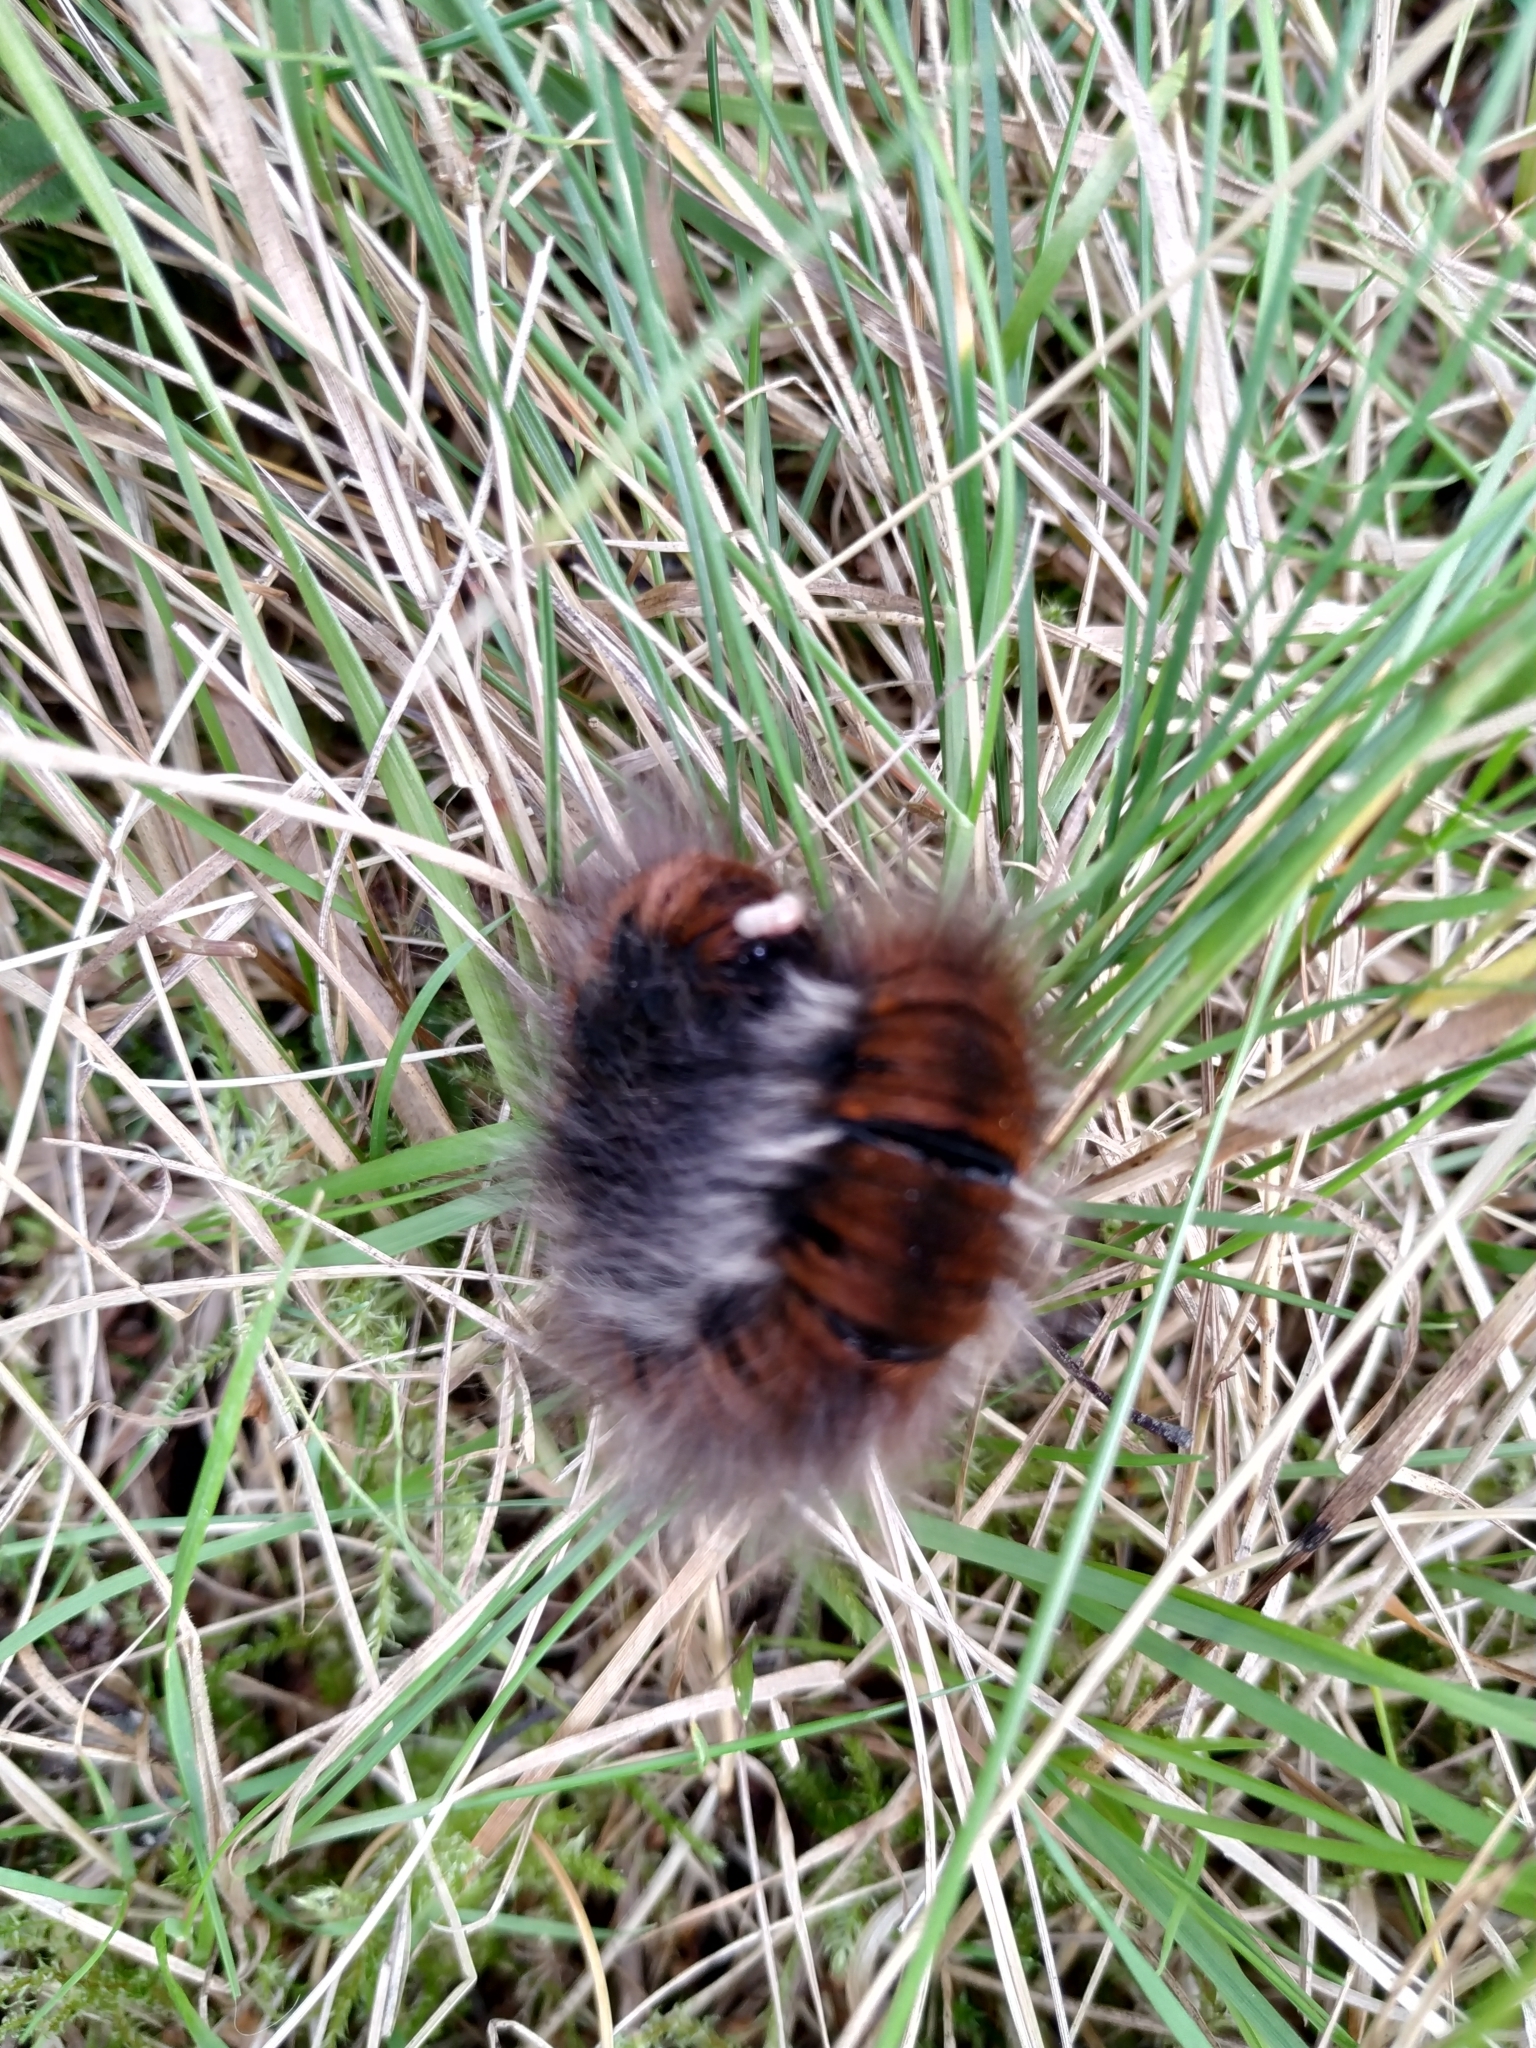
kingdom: Animalia
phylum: Arthropoda
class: Insecta
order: Lepidoptera
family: Lasiocampidae
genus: Macrothylacia
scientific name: Macrothylacia rubi
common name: Fox moth
